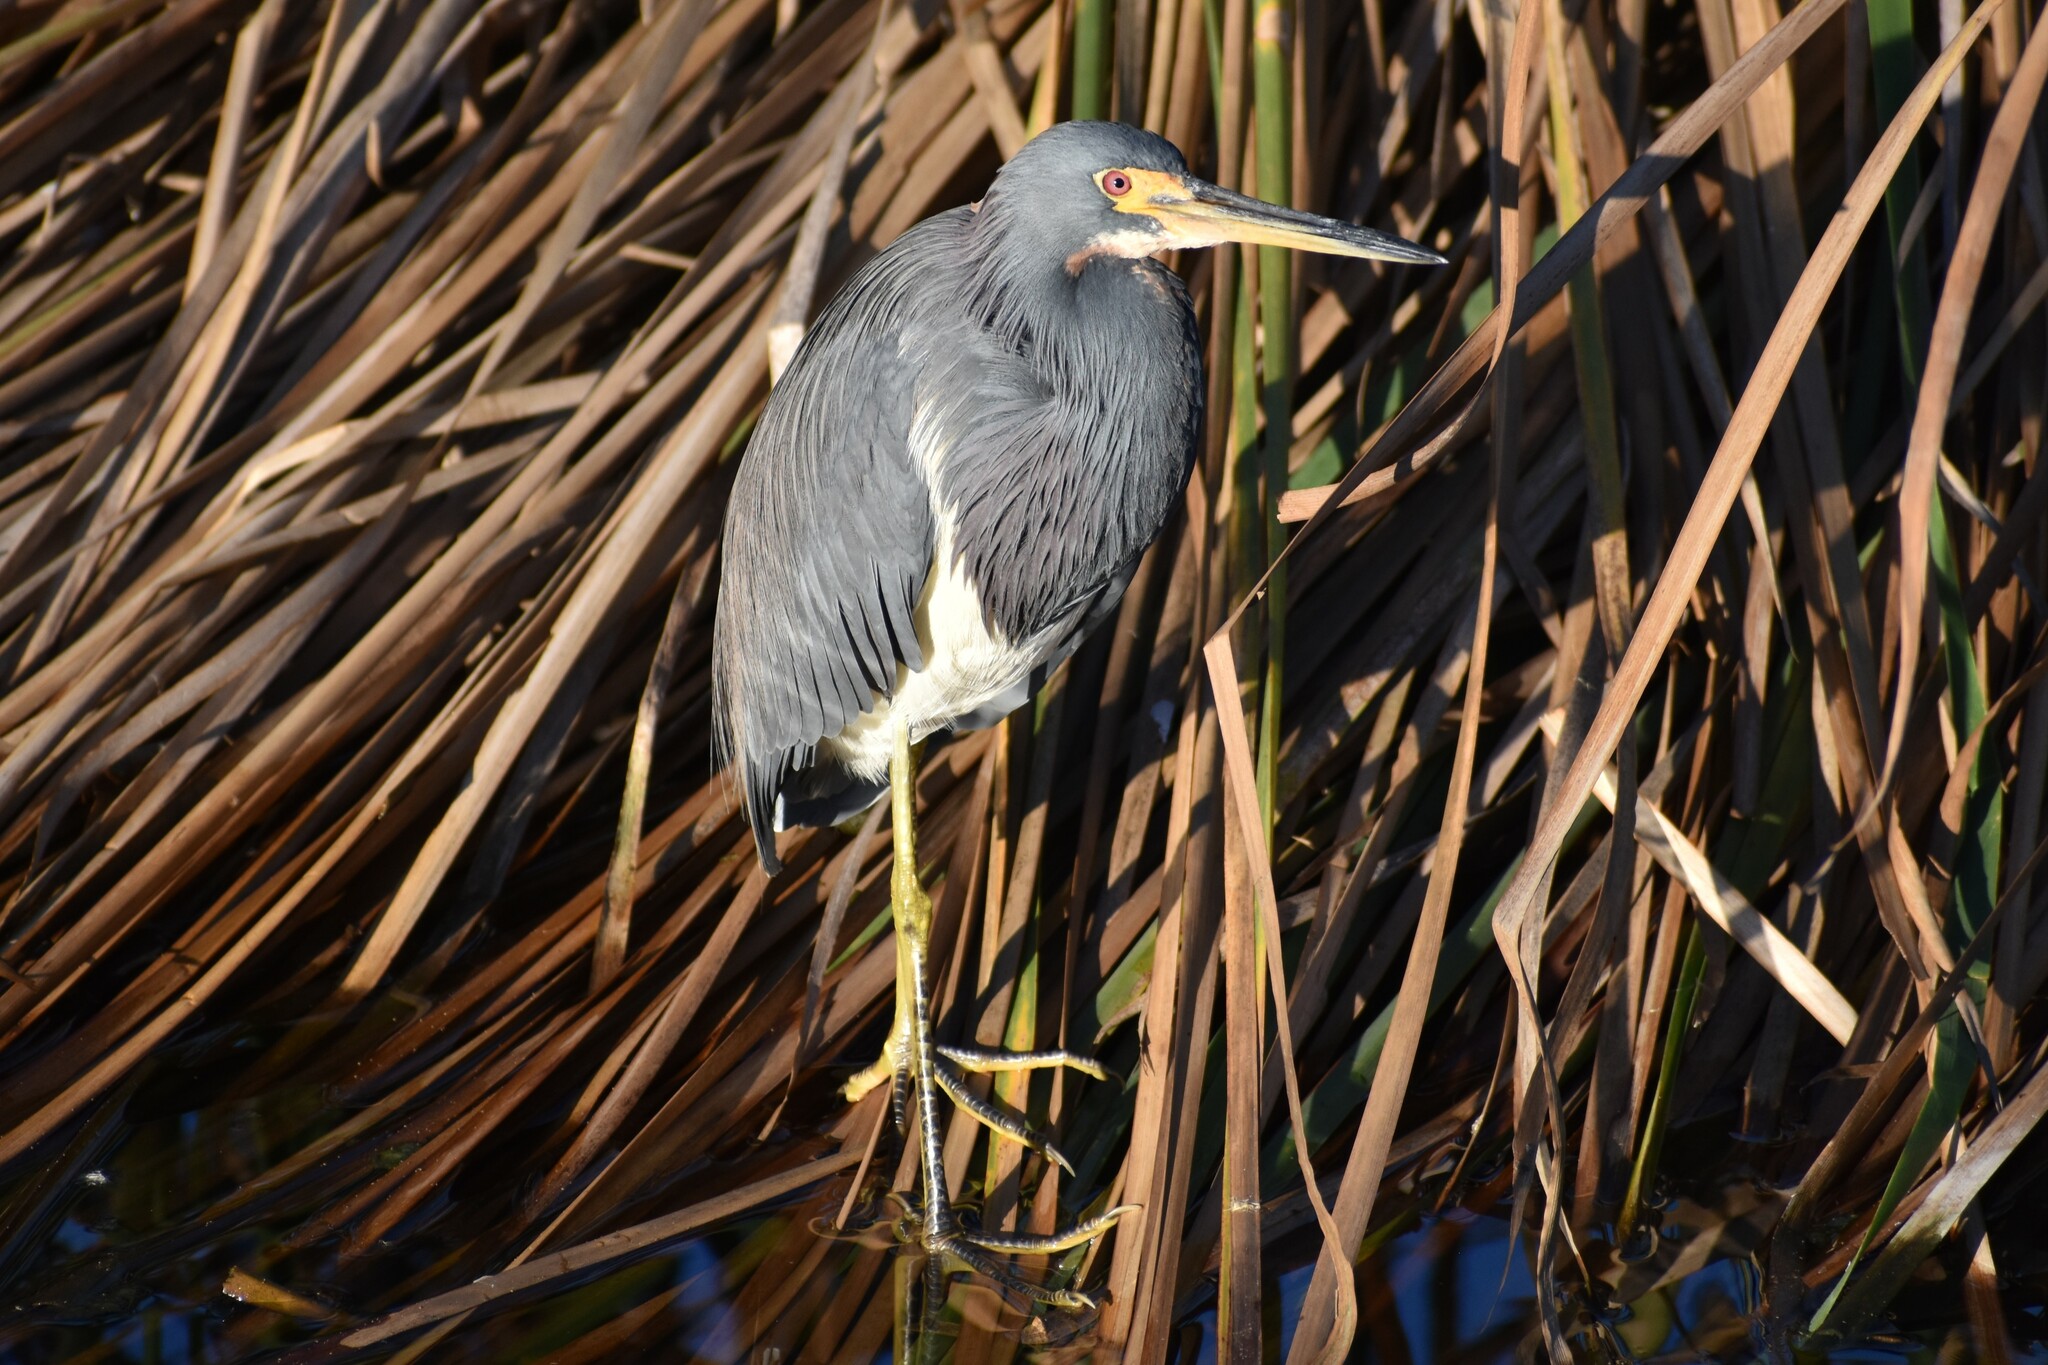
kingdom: Animalia
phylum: Chordata
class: Aves
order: Pelecaniformes
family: Ardeidae
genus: Egretta
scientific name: Egretta tricolor
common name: Tricolored heron
